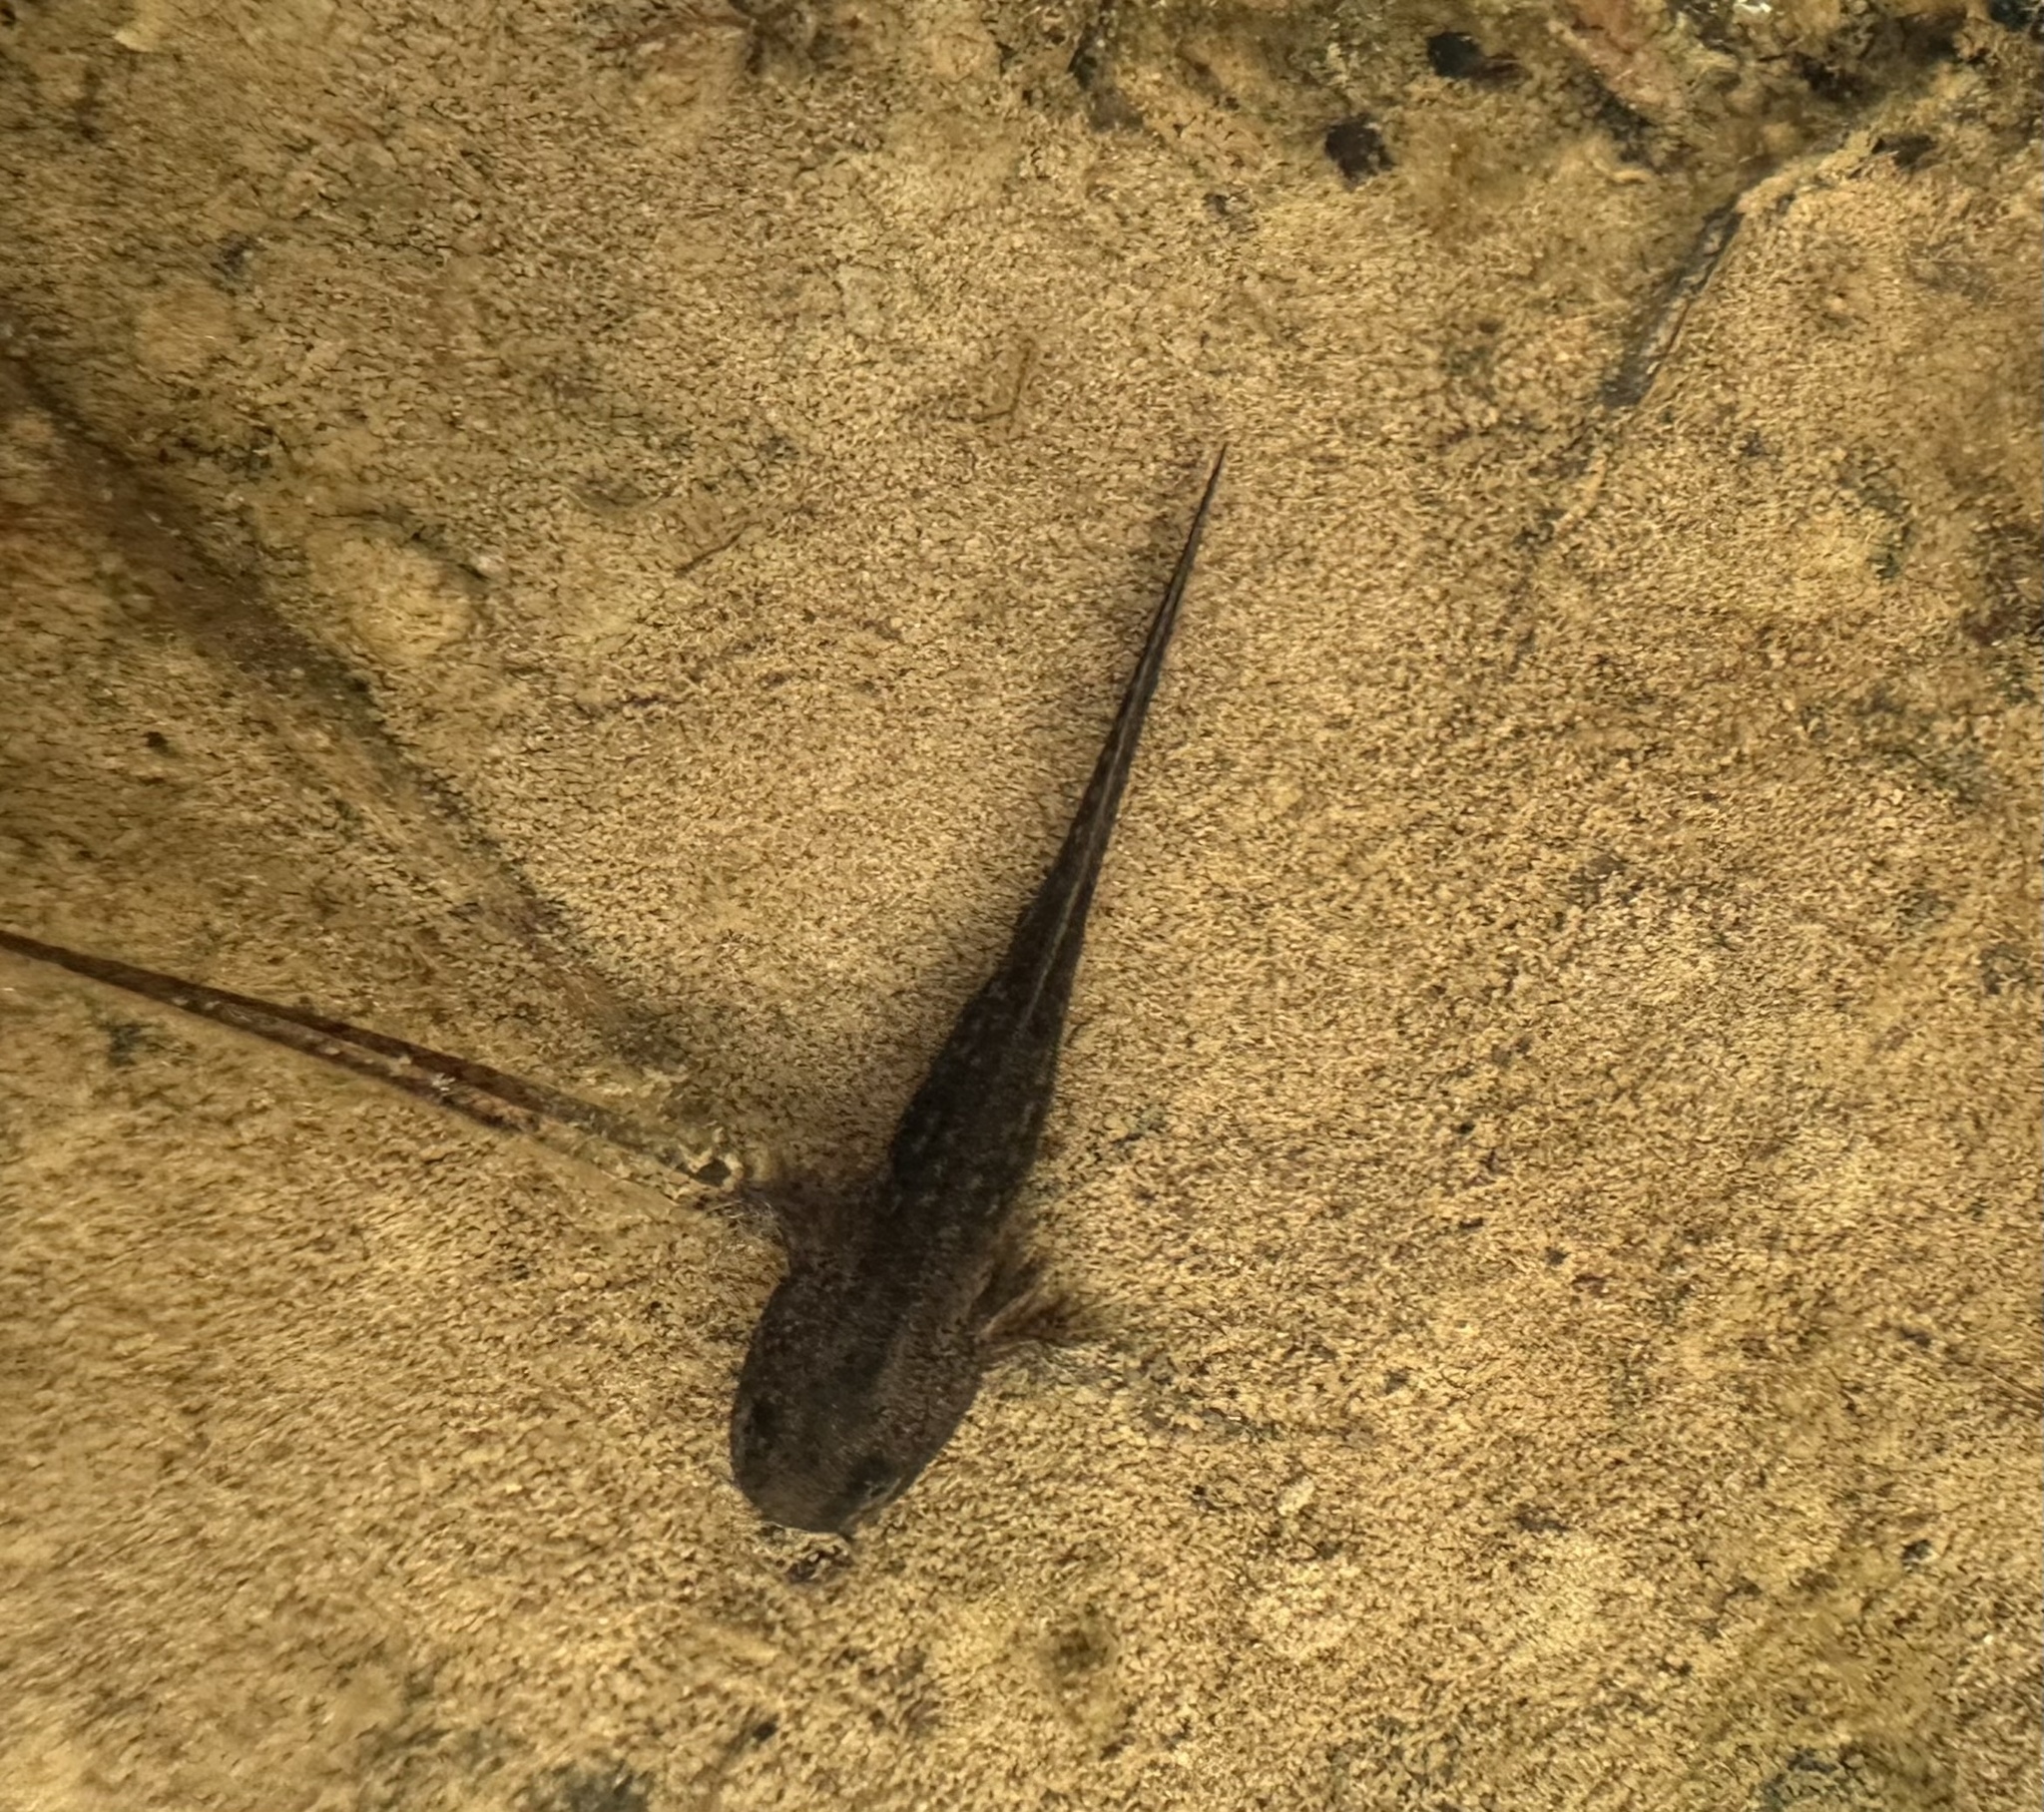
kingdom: Animalia
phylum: Chordata
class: Amphibia
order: Caudata
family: Ambystomatidae
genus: Ambystoma
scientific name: Ambystoma opacum
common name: Marbled salamander
